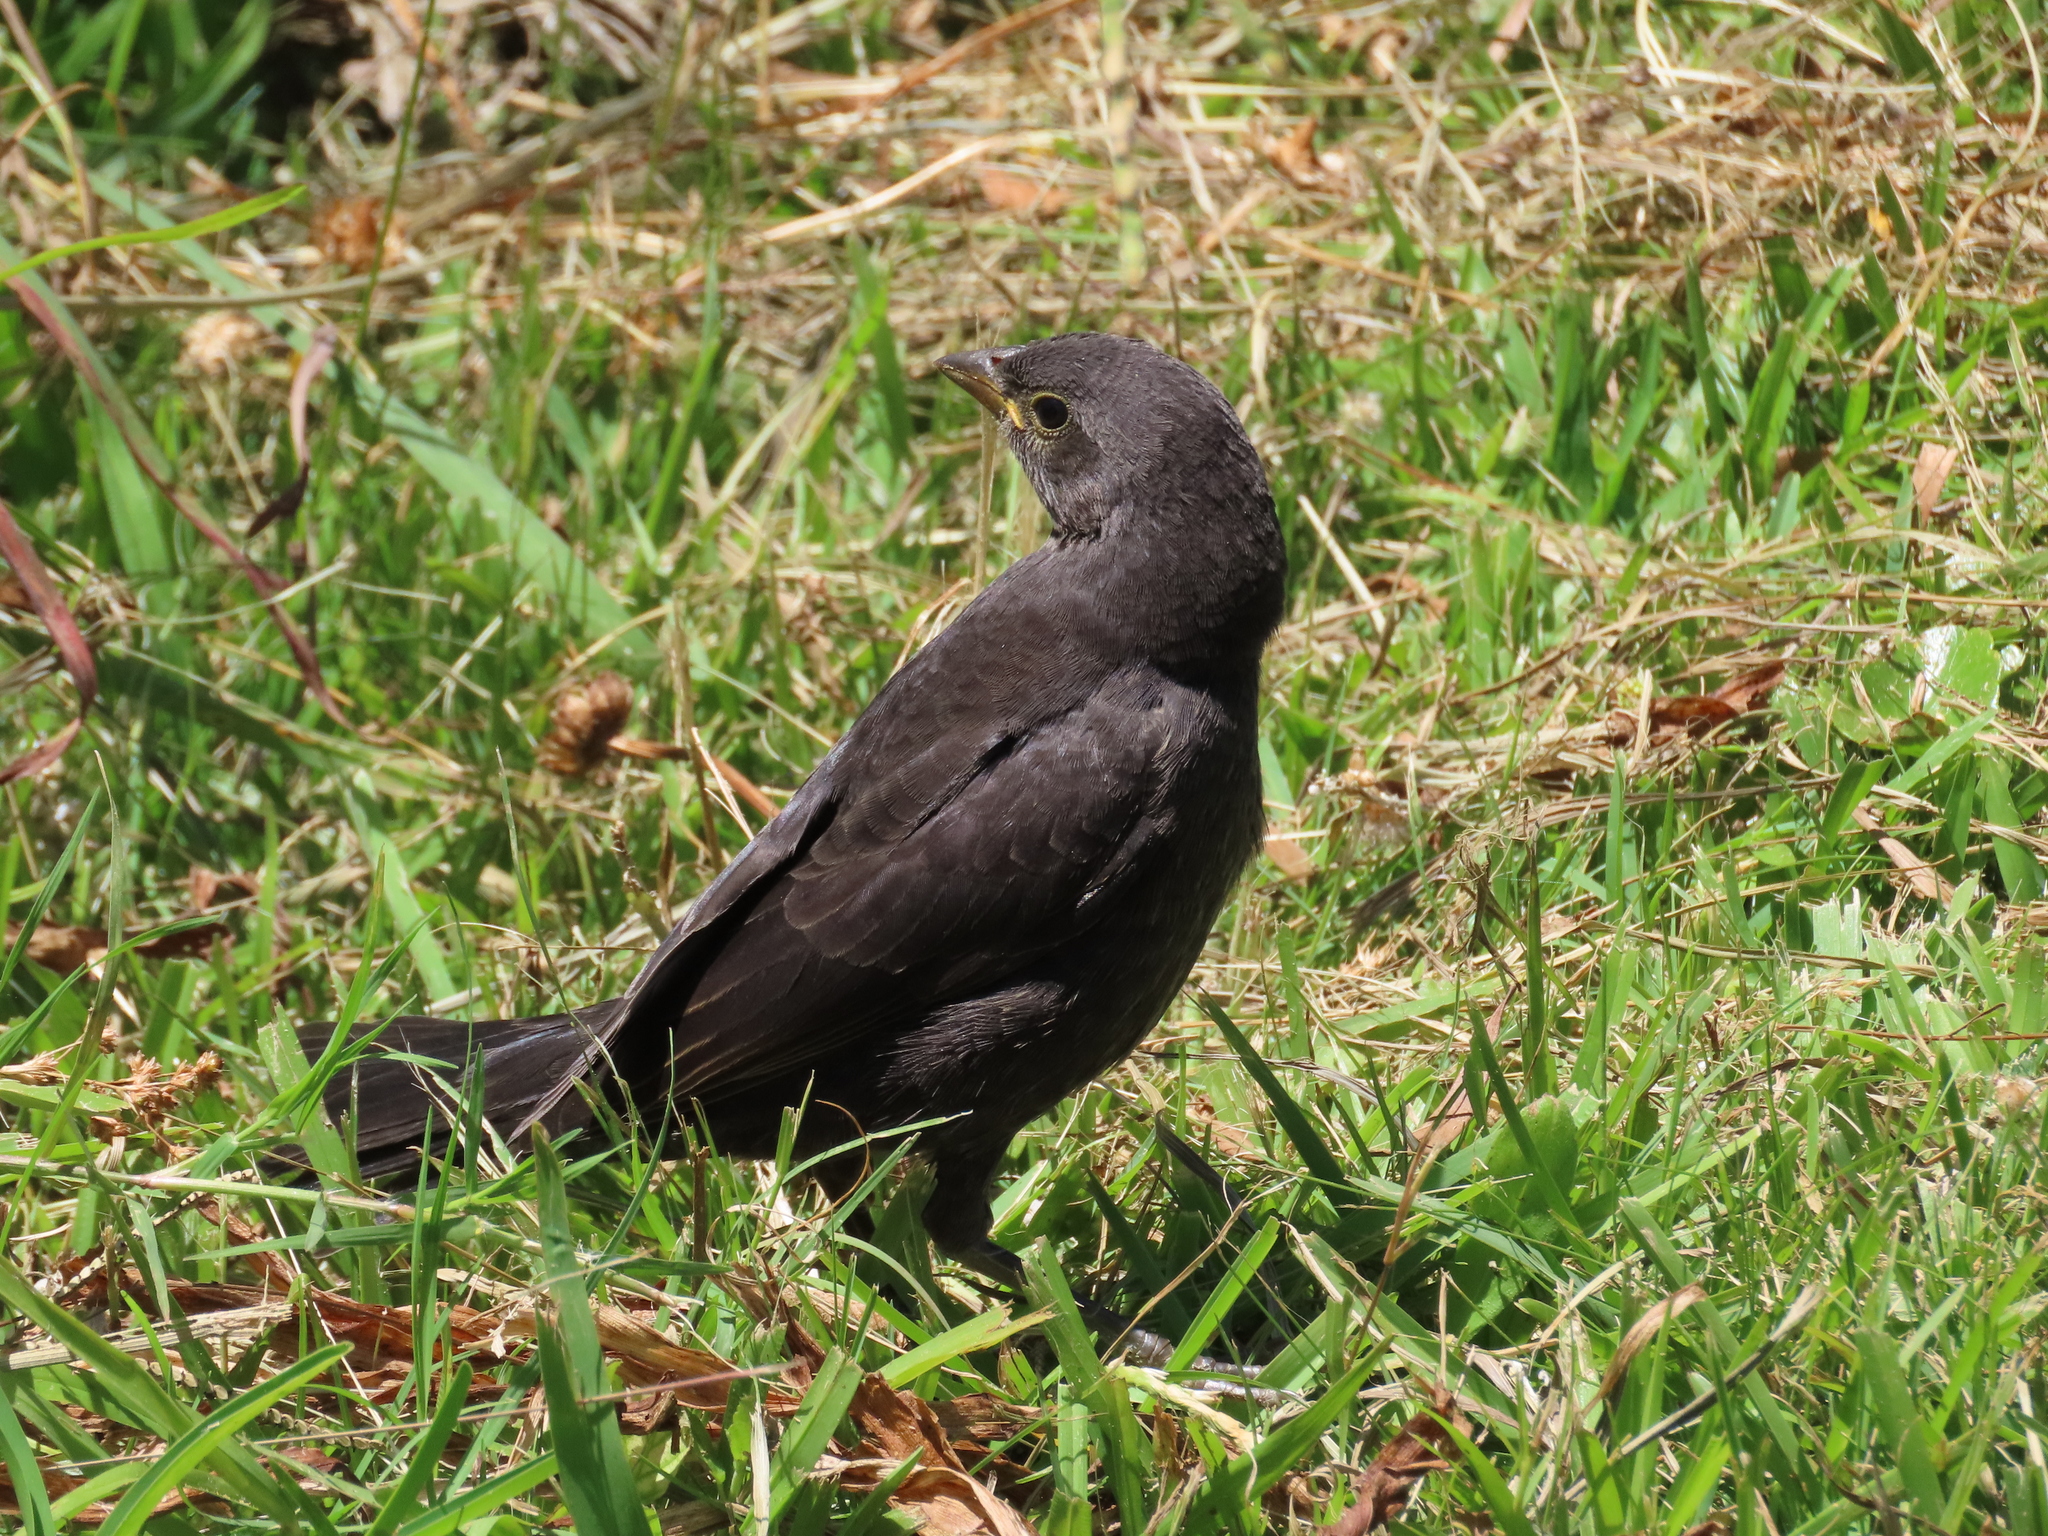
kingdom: Animalia
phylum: Chordata
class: Aves
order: Passeriformes
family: Icteridae
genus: Molothrus
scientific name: Molothrus bonariensis
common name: Shiny cowbird
